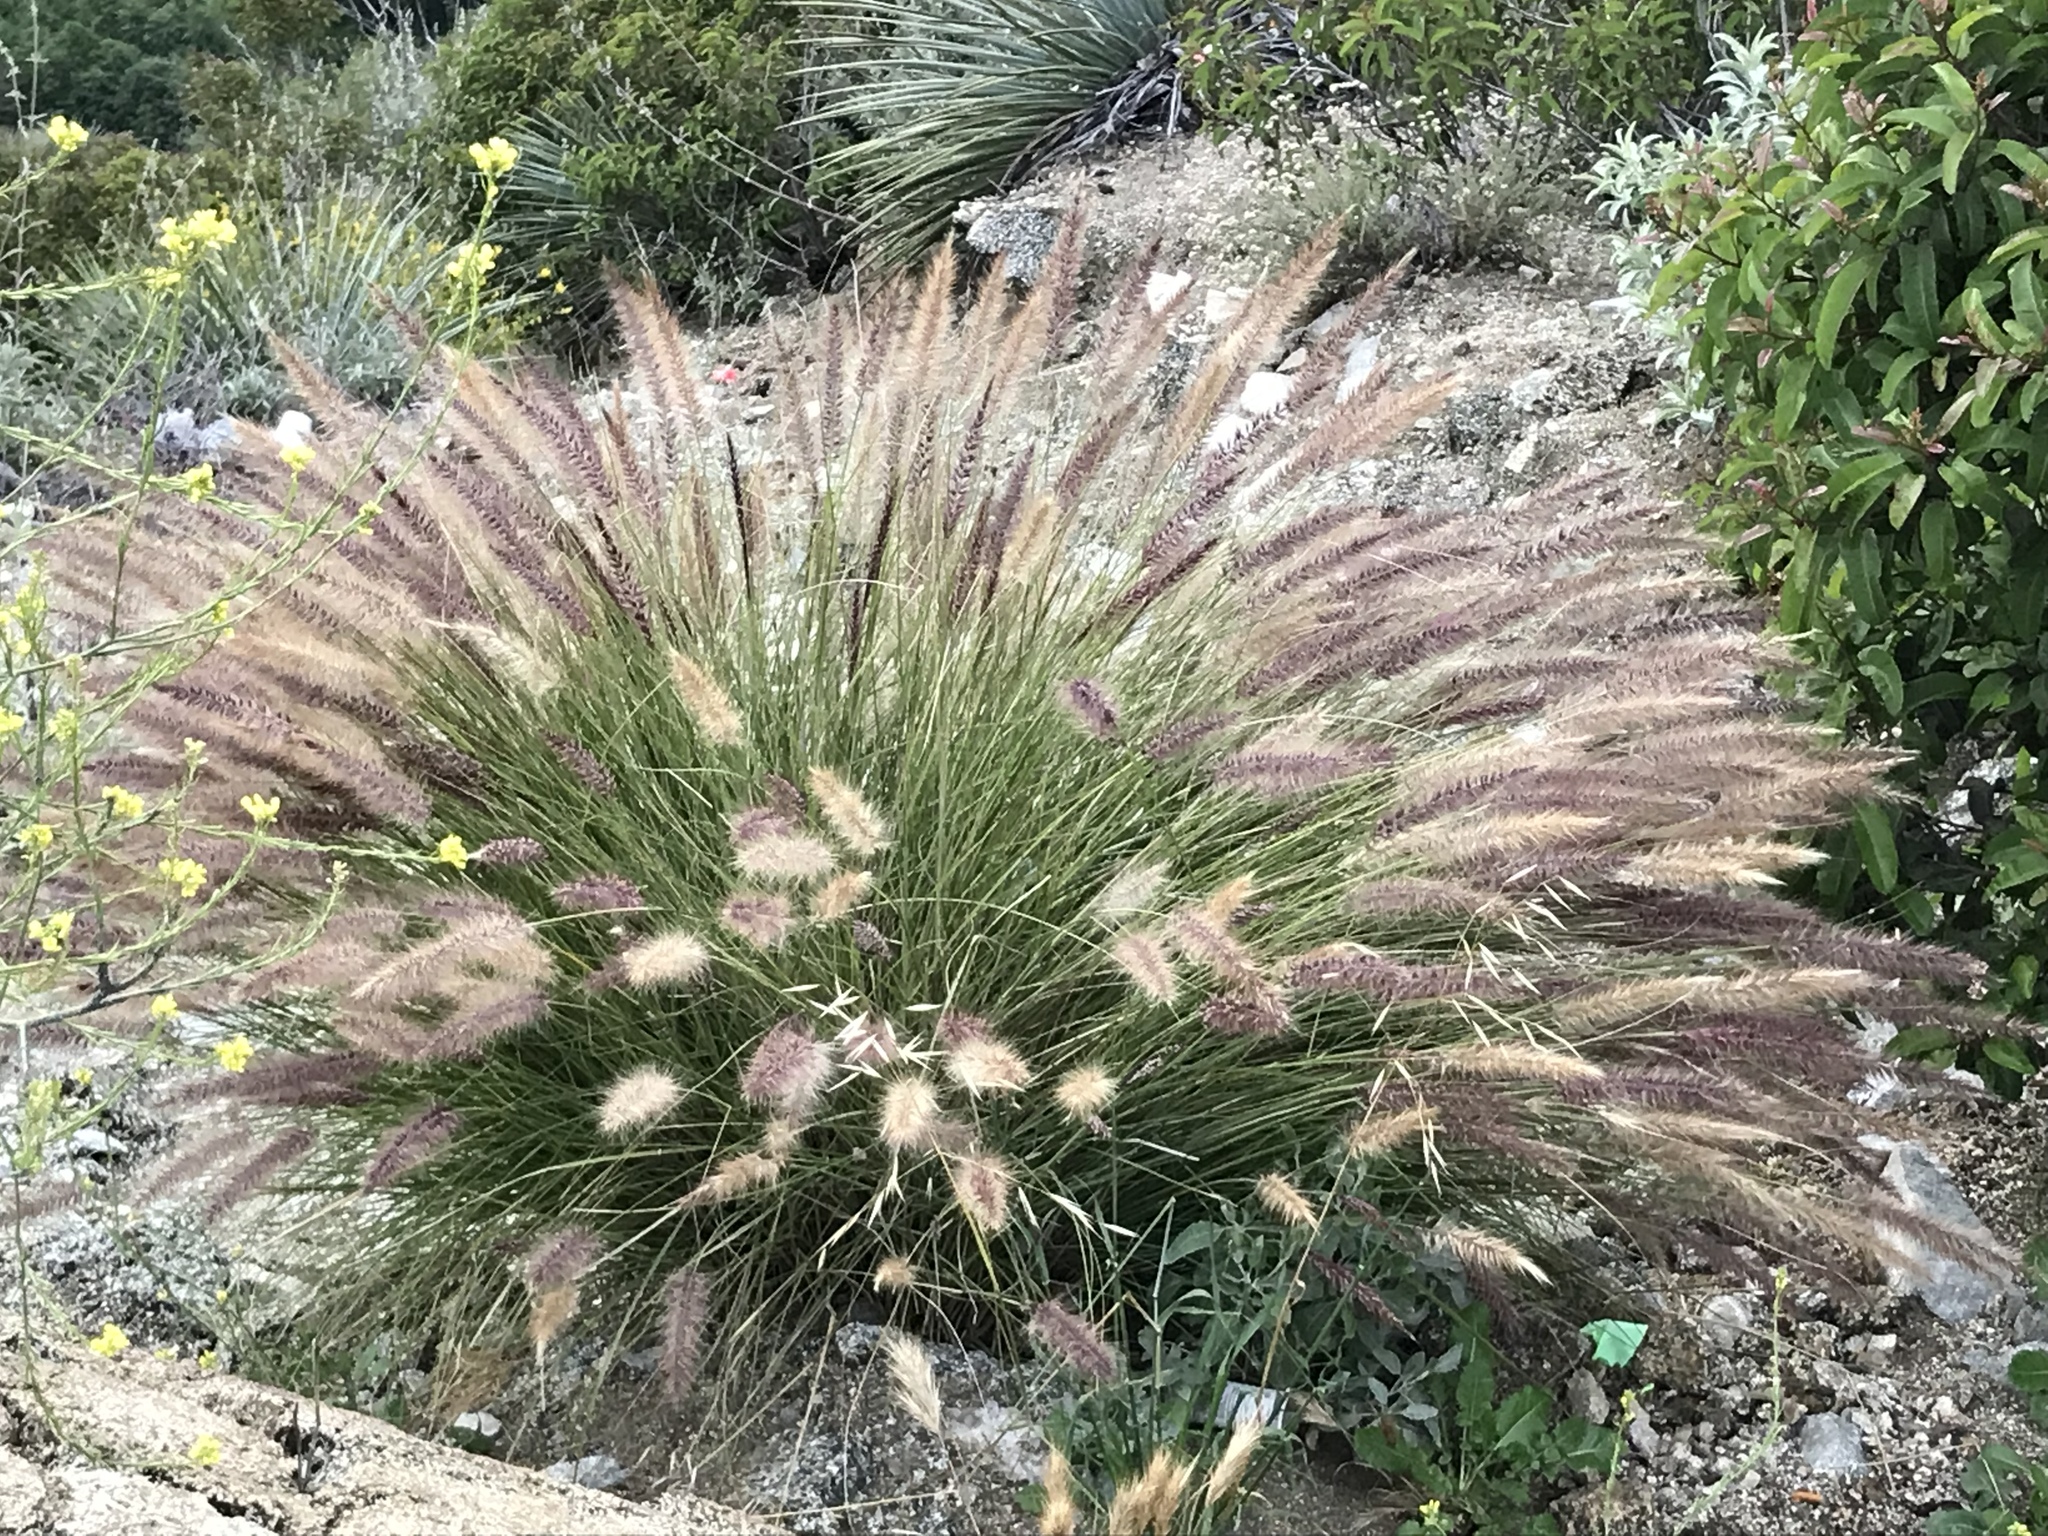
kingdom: Plantae
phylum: Tracheophyta
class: Liliopsida
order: Poales
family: Poaceae
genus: Cenchrus
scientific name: Cenchrus setaceus
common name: Crimson fountaingrass
